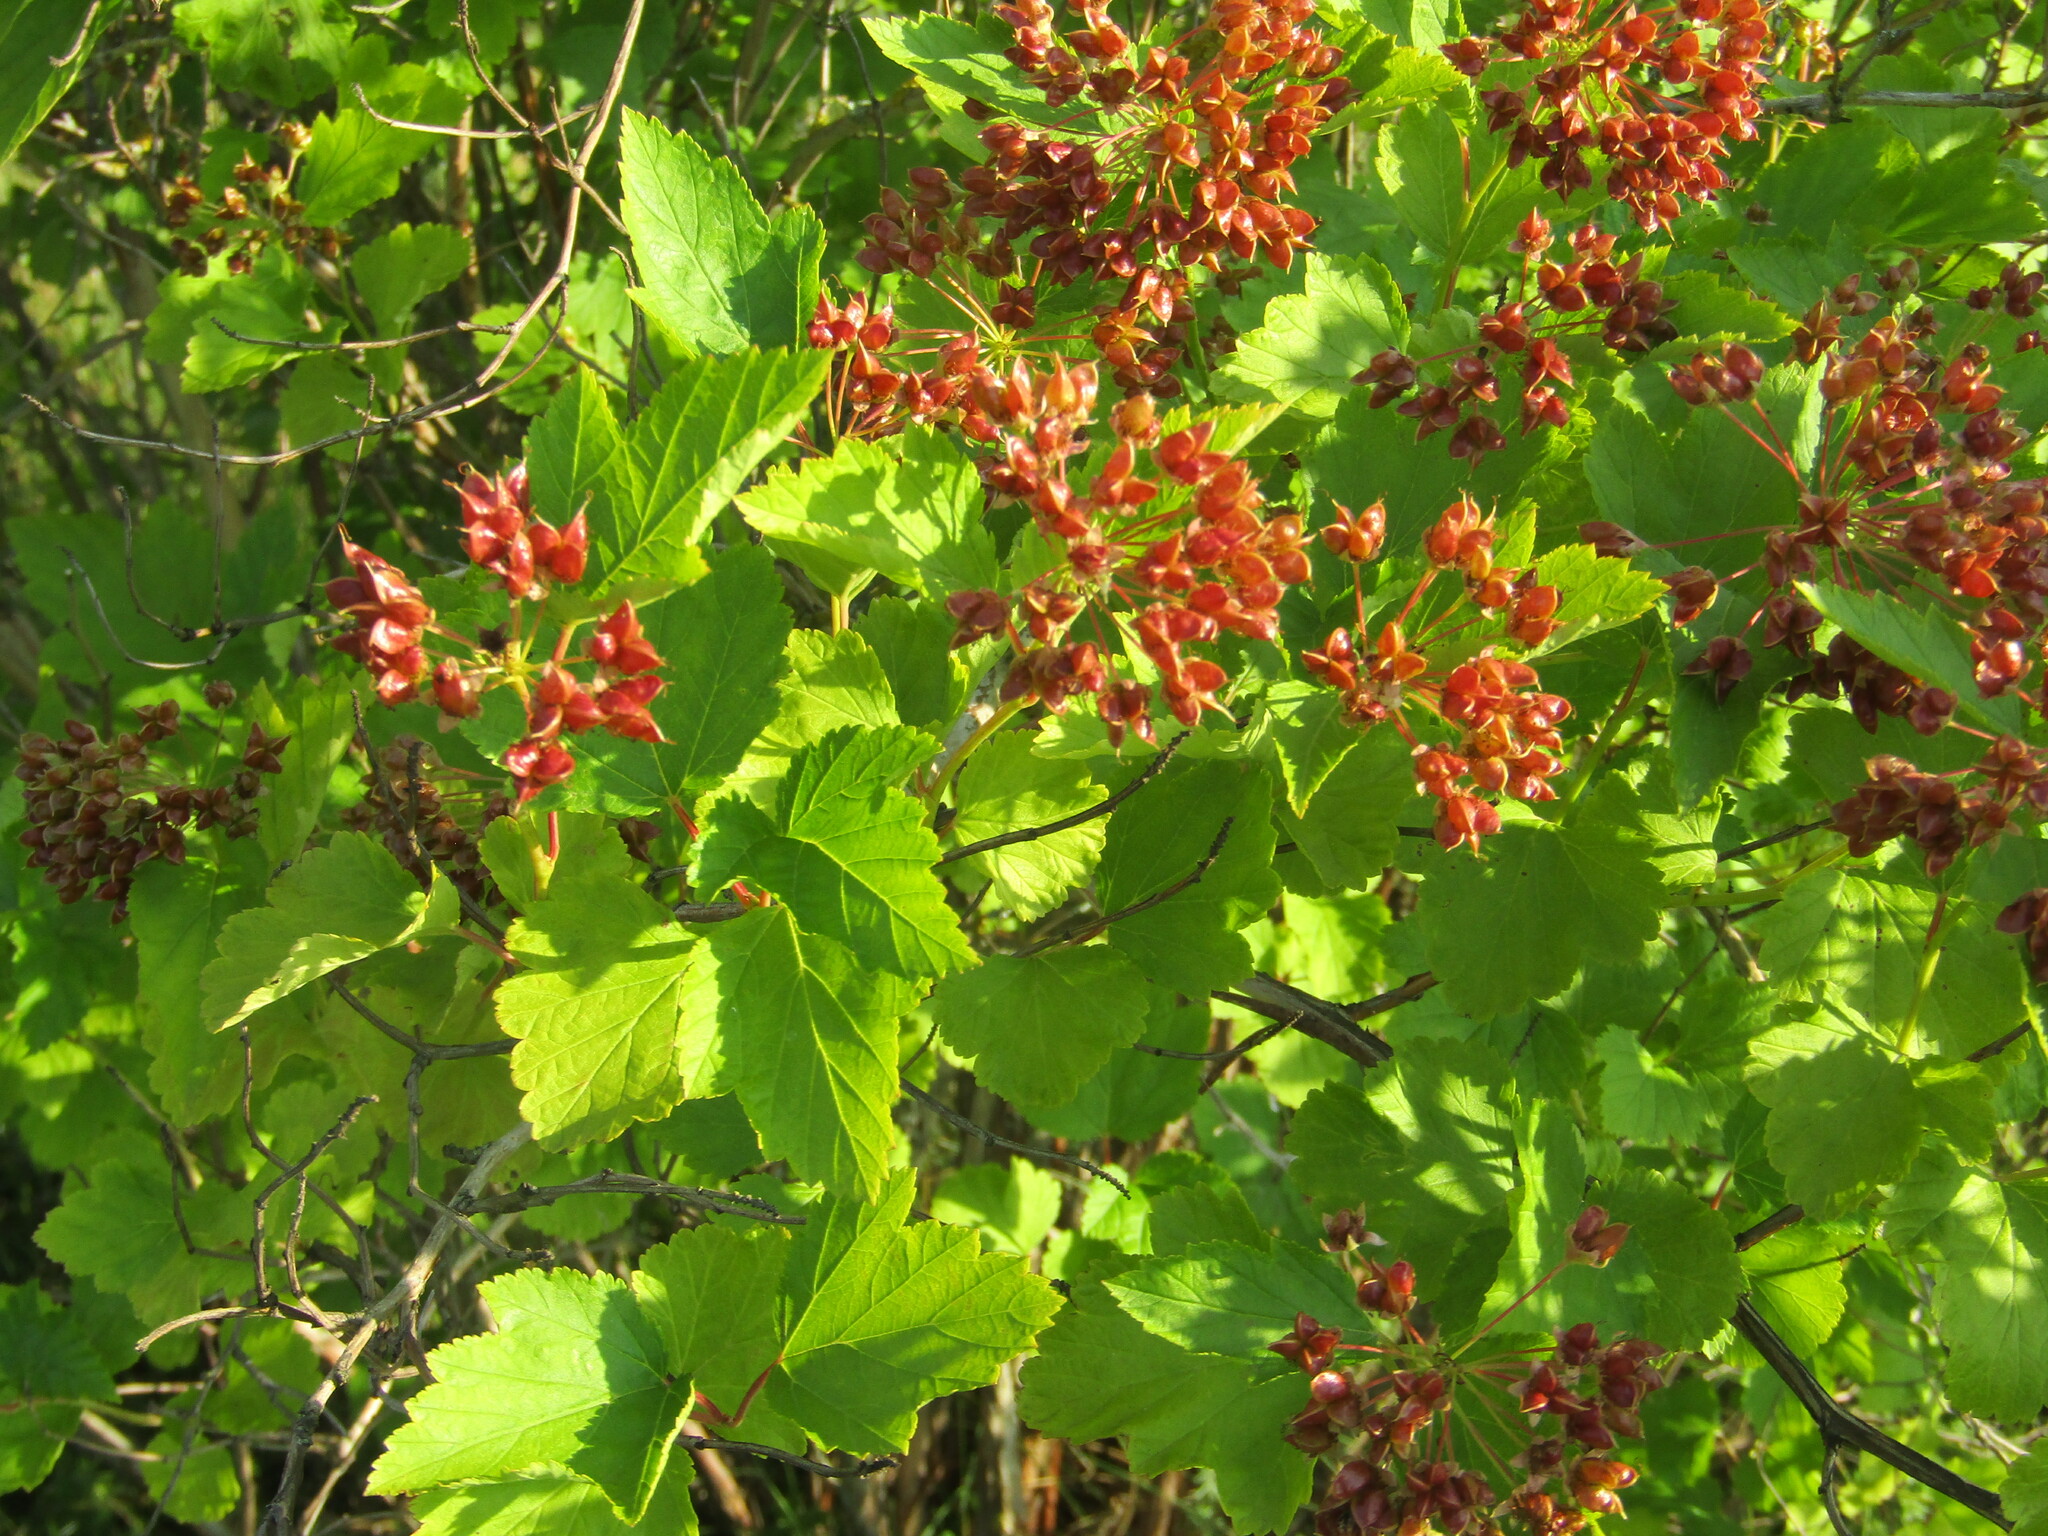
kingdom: Plantae
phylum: Tracheophyta
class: Magnoliopsida
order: Rosales
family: Rosaceae
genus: Physocarpus
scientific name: Physocarpus opulifolius
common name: Ninebark
